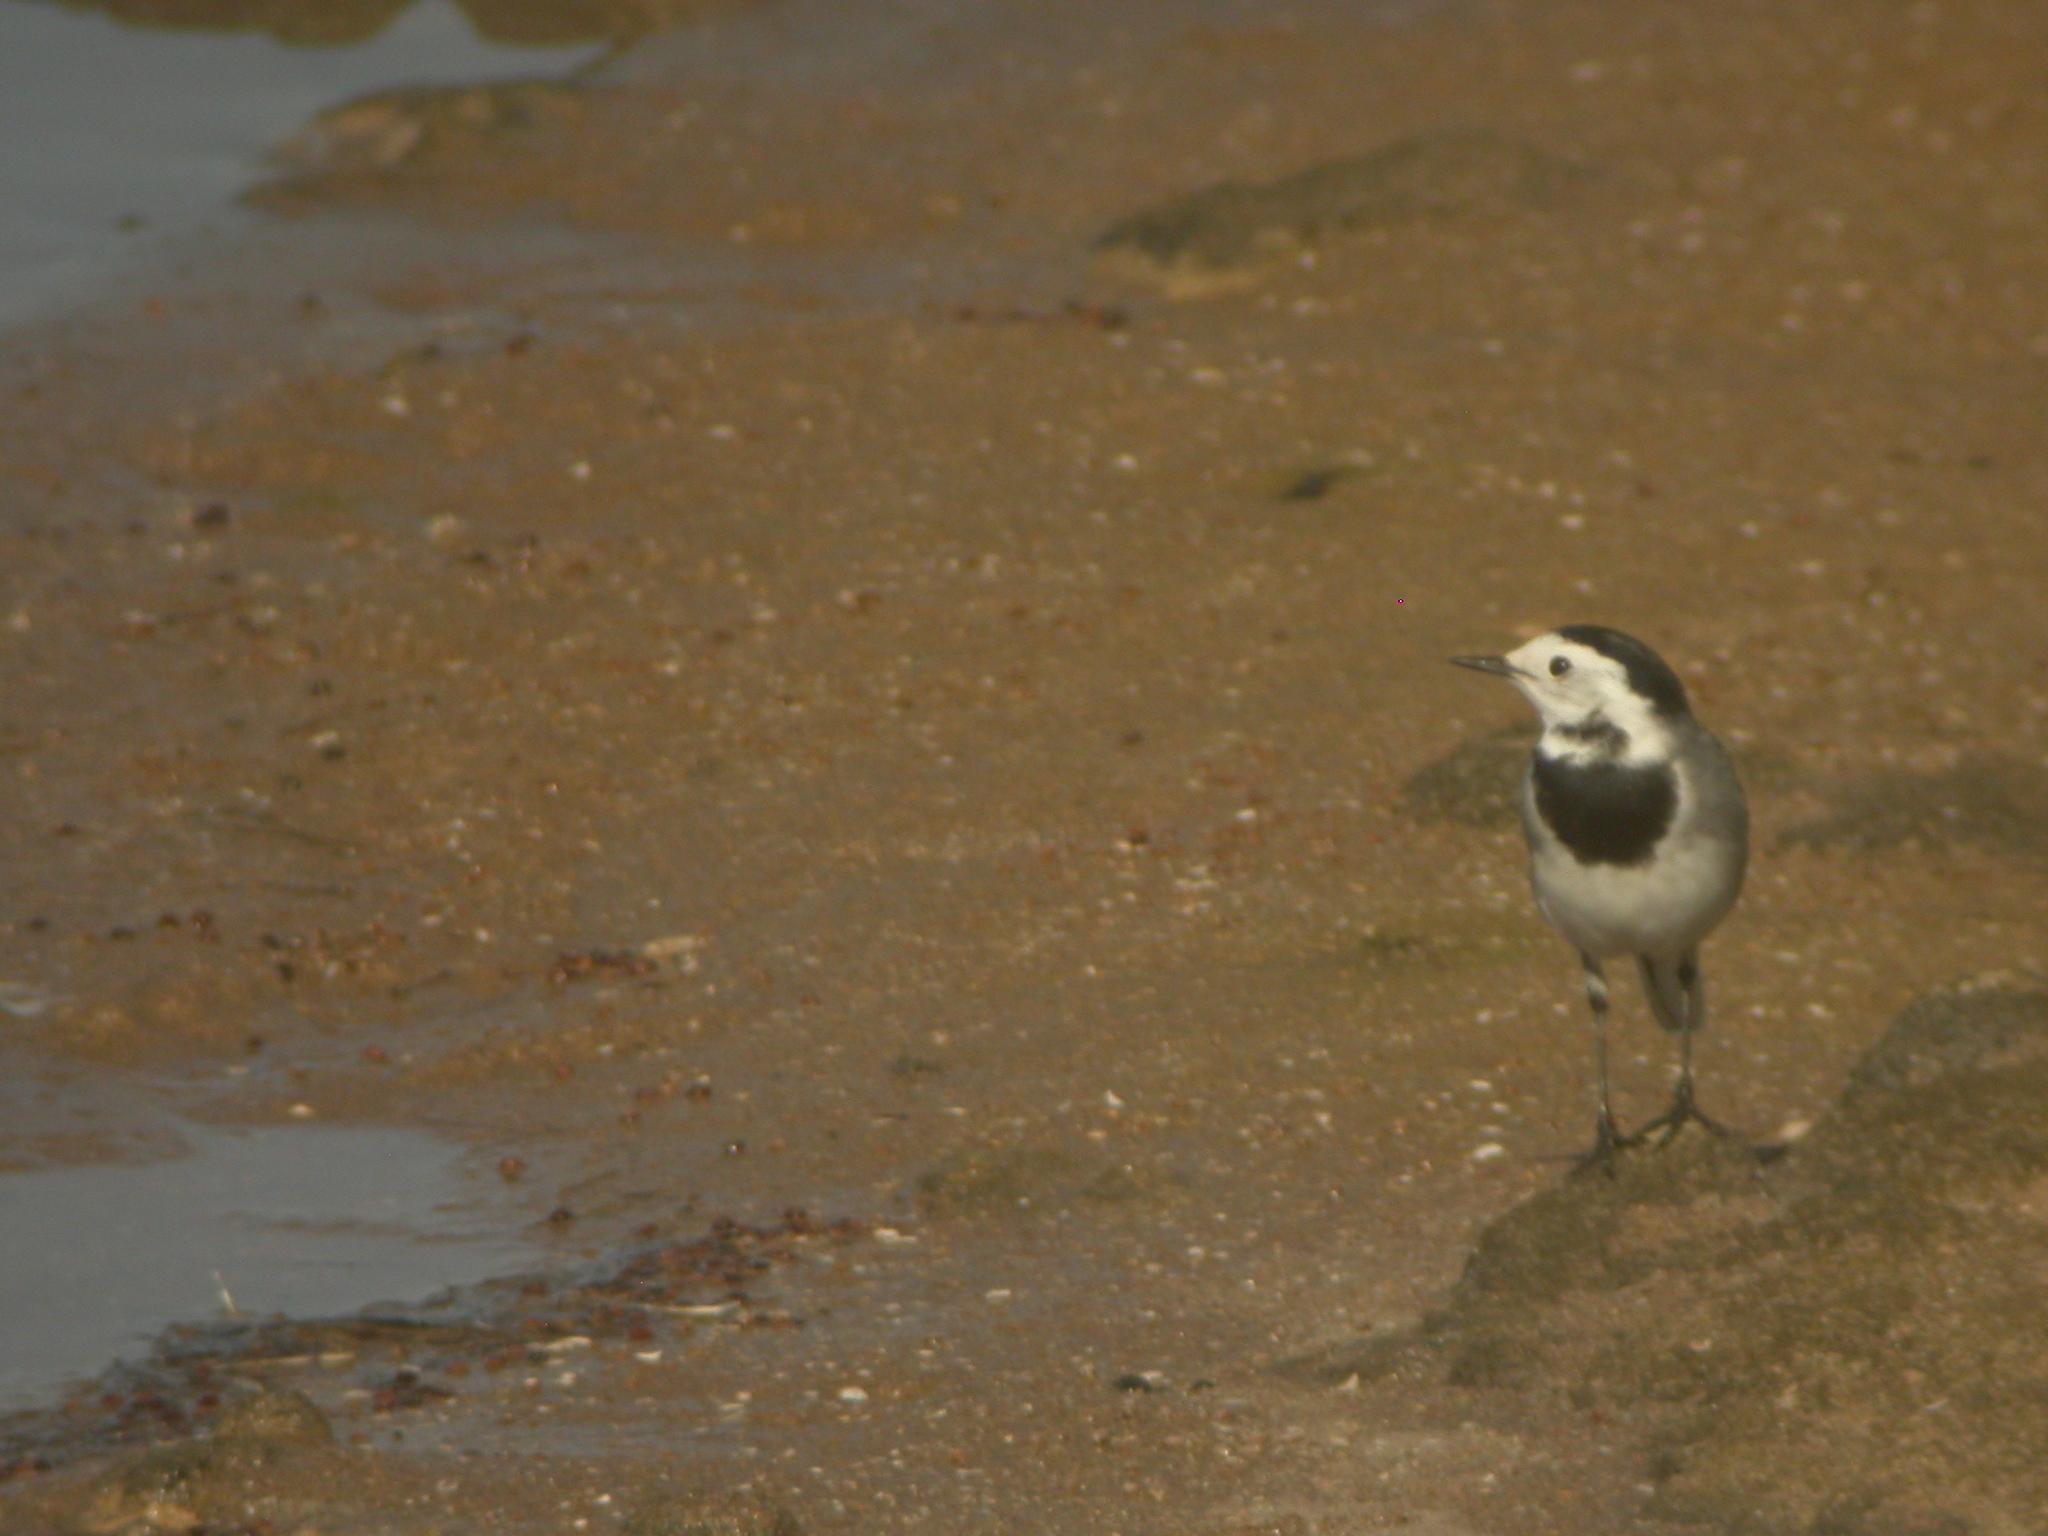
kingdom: Animalia
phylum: Chordata
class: Aves
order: Passeriformes
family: Motacillidae
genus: Motacilla
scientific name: Motacilla alba
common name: White wagtail
